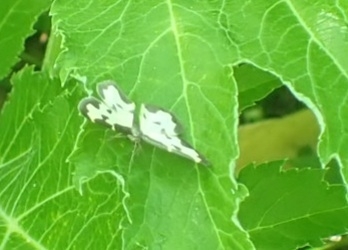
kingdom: Animalia
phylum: Arthropoda
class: Insecta
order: Lepidoptera
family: Geometridae
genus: Lomaspilis
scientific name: Lomaspilis marginata
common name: Clouded border
